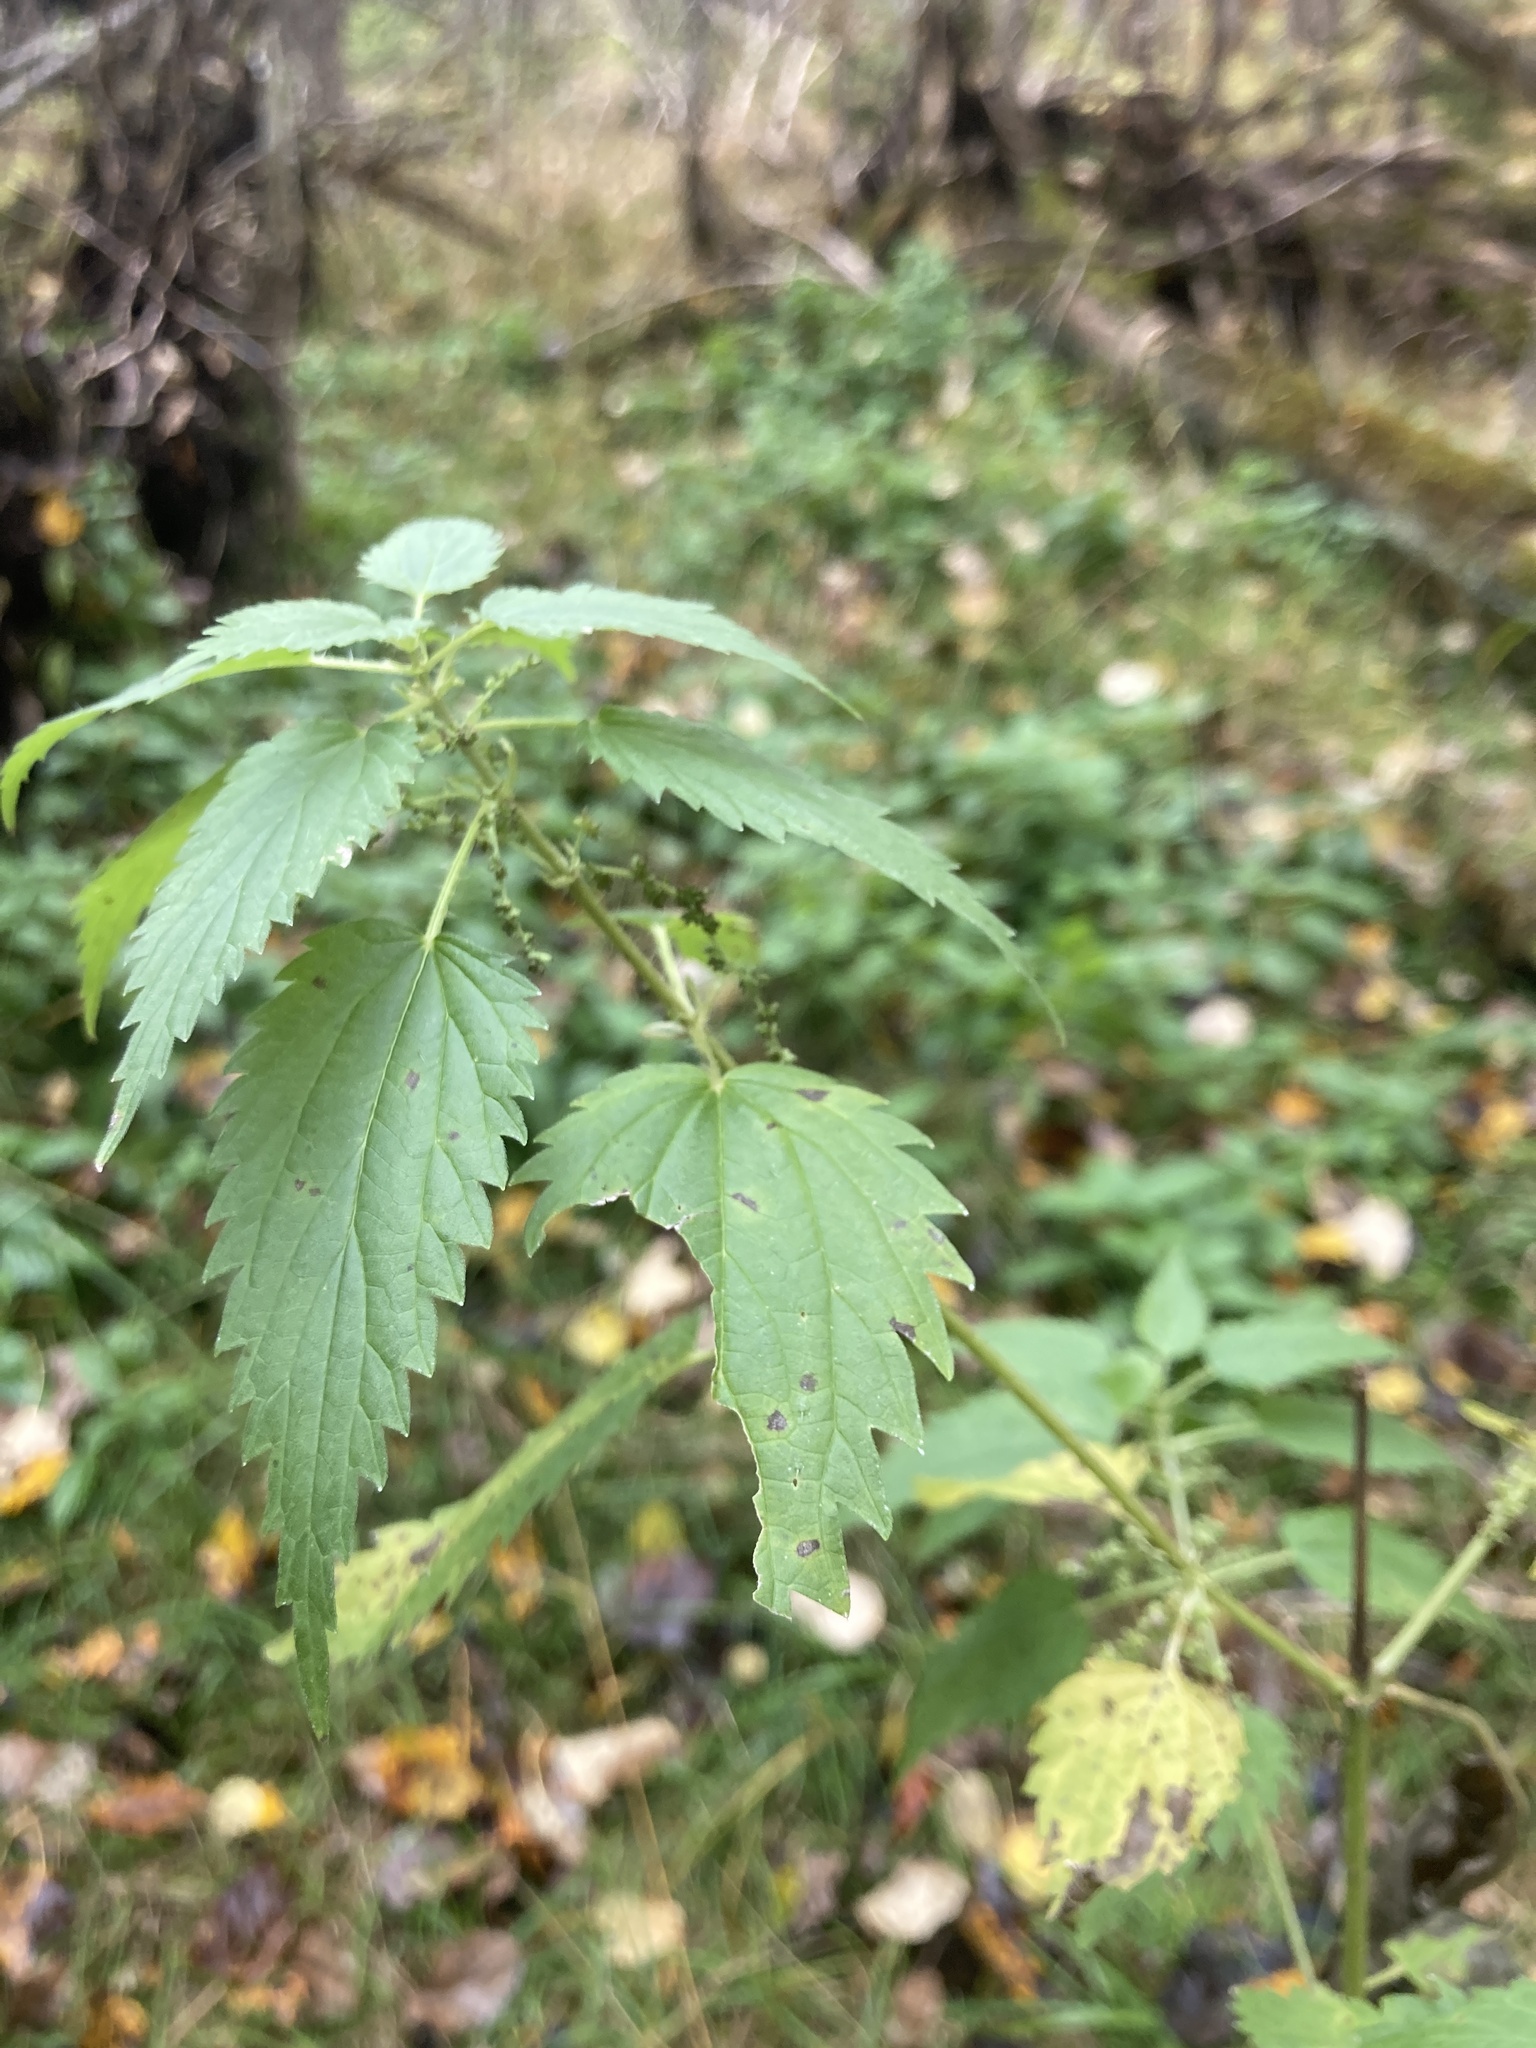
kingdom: Plantae
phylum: Tracheophyta
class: Magnoliopsida
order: Rosales
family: Urticaceae
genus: Urtica
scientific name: Urtica dioica
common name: Common nettle
